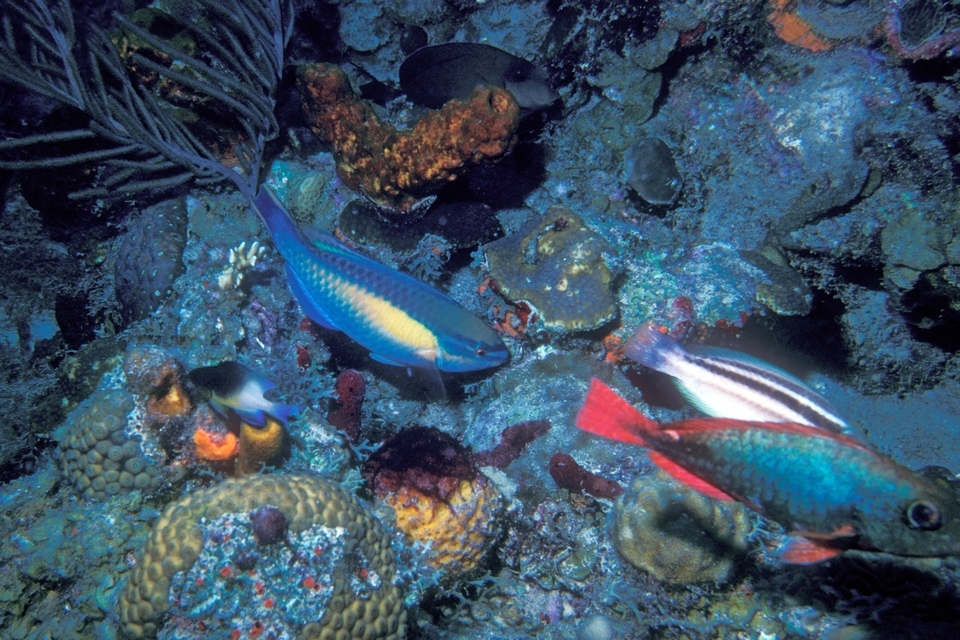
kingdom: Animalia
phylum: Chordata
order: Perciformes
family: Scaridae
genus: Sparisoma
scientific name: Sparisoma aurofrenatum
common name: Redband parrotfish
